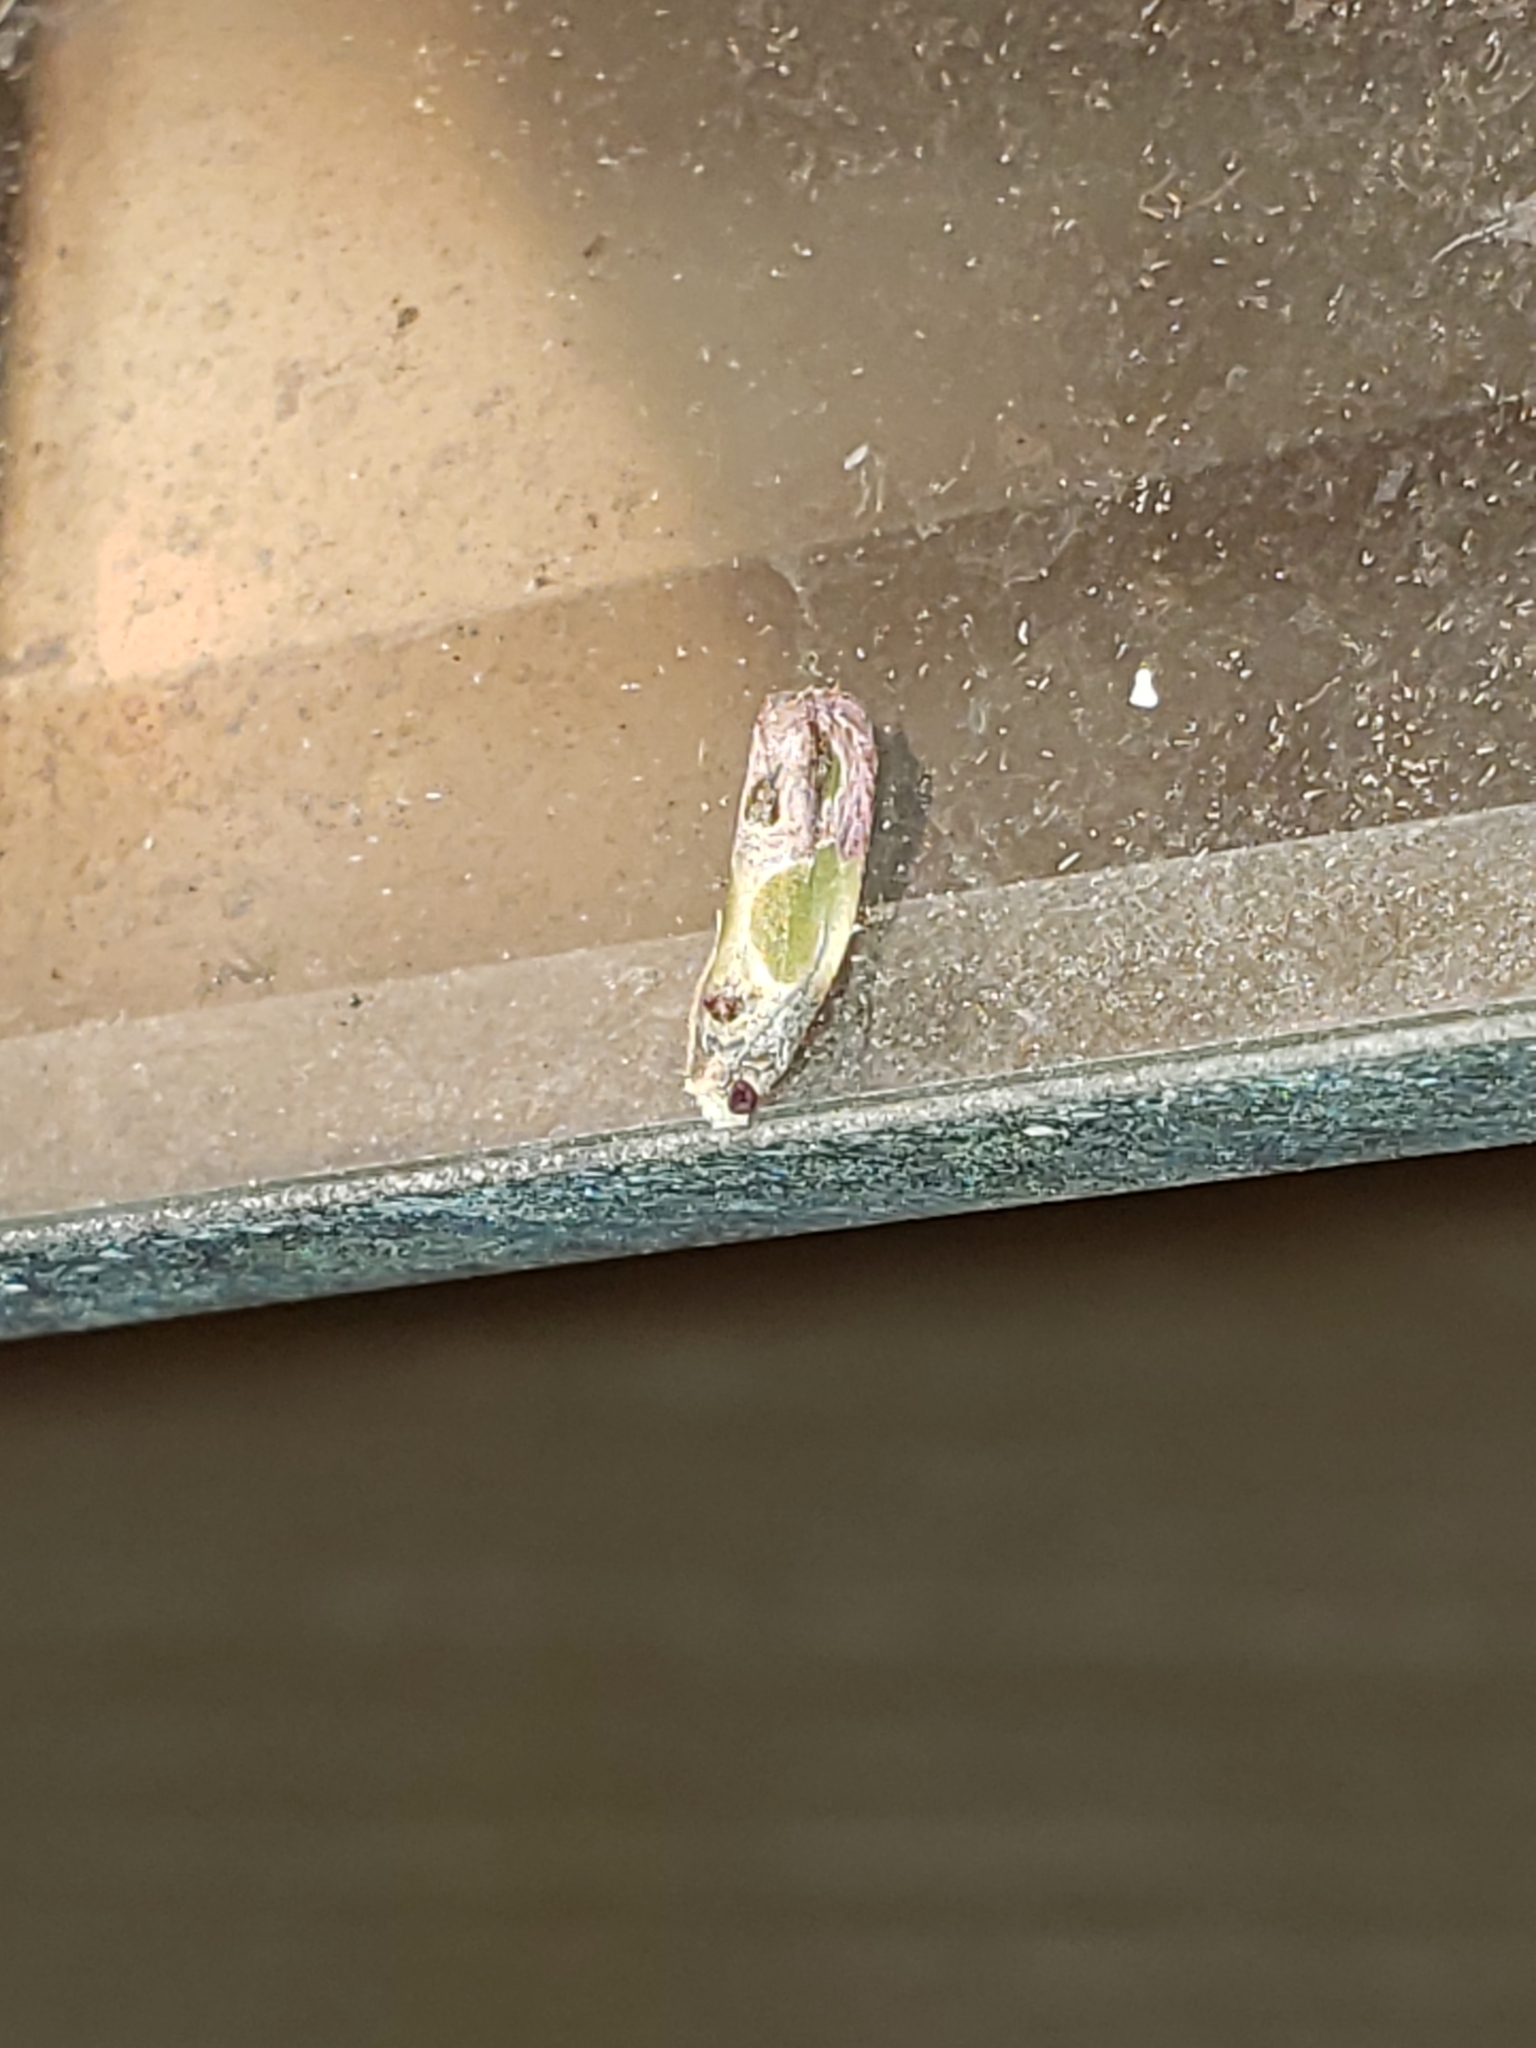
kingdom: Animalia
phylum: Arthropoda
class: Insecta
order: Lepidoptera
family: Tortricidae
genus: Eumarozia
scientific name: Eumarozia malachitana
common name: Sculptured moth
